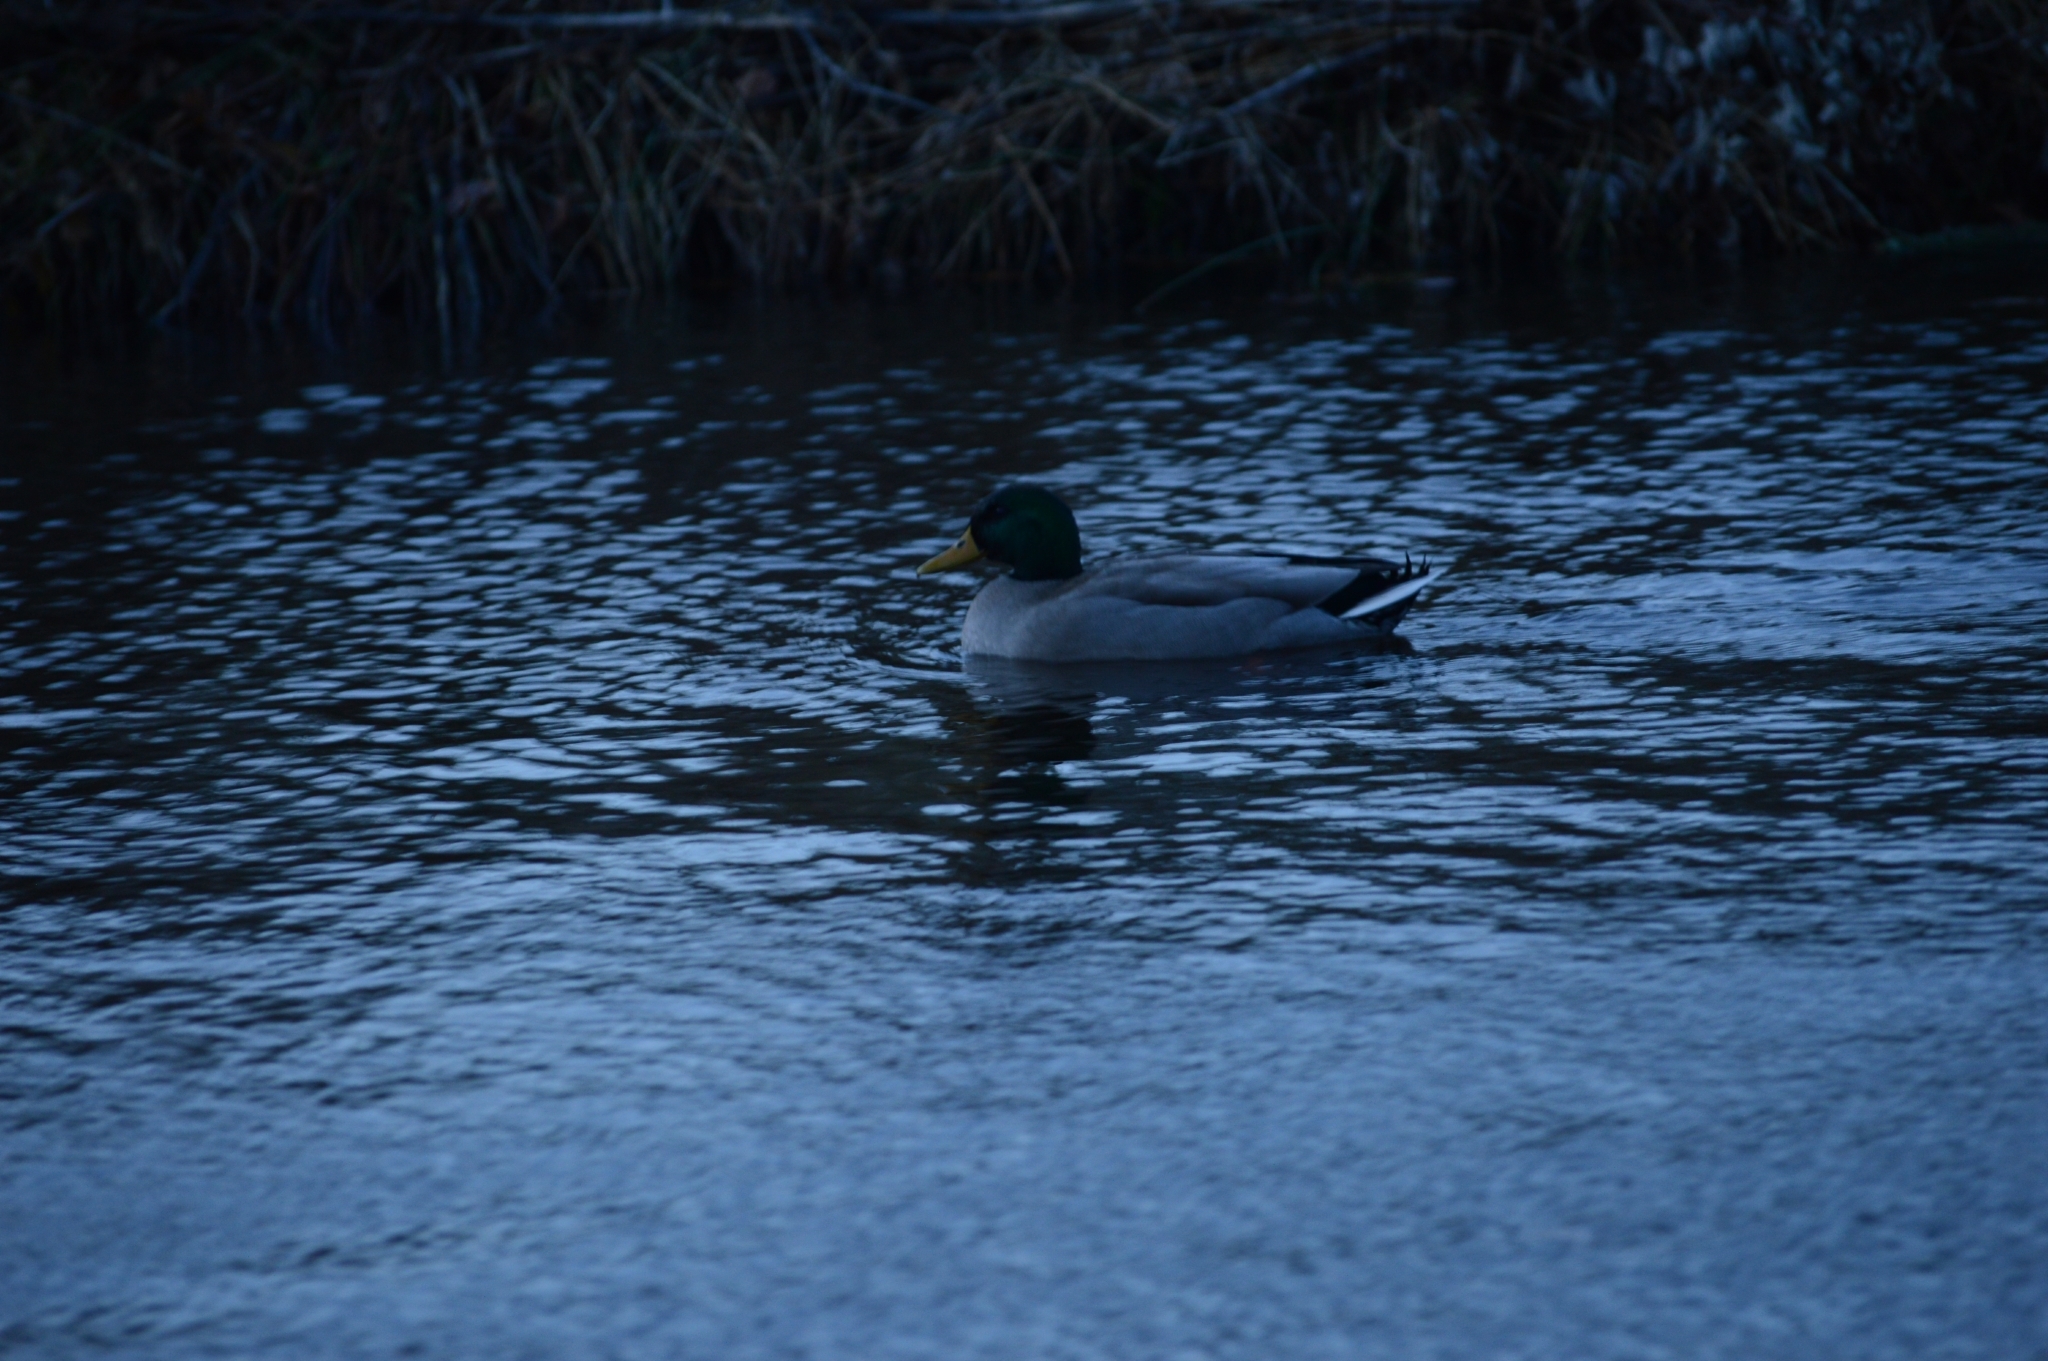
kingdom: Animalia
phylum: Chordata
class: Aves
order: Anseriformes
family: Anatidae
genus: Anas
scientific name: Anas platyrhynchos
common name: Mallard
